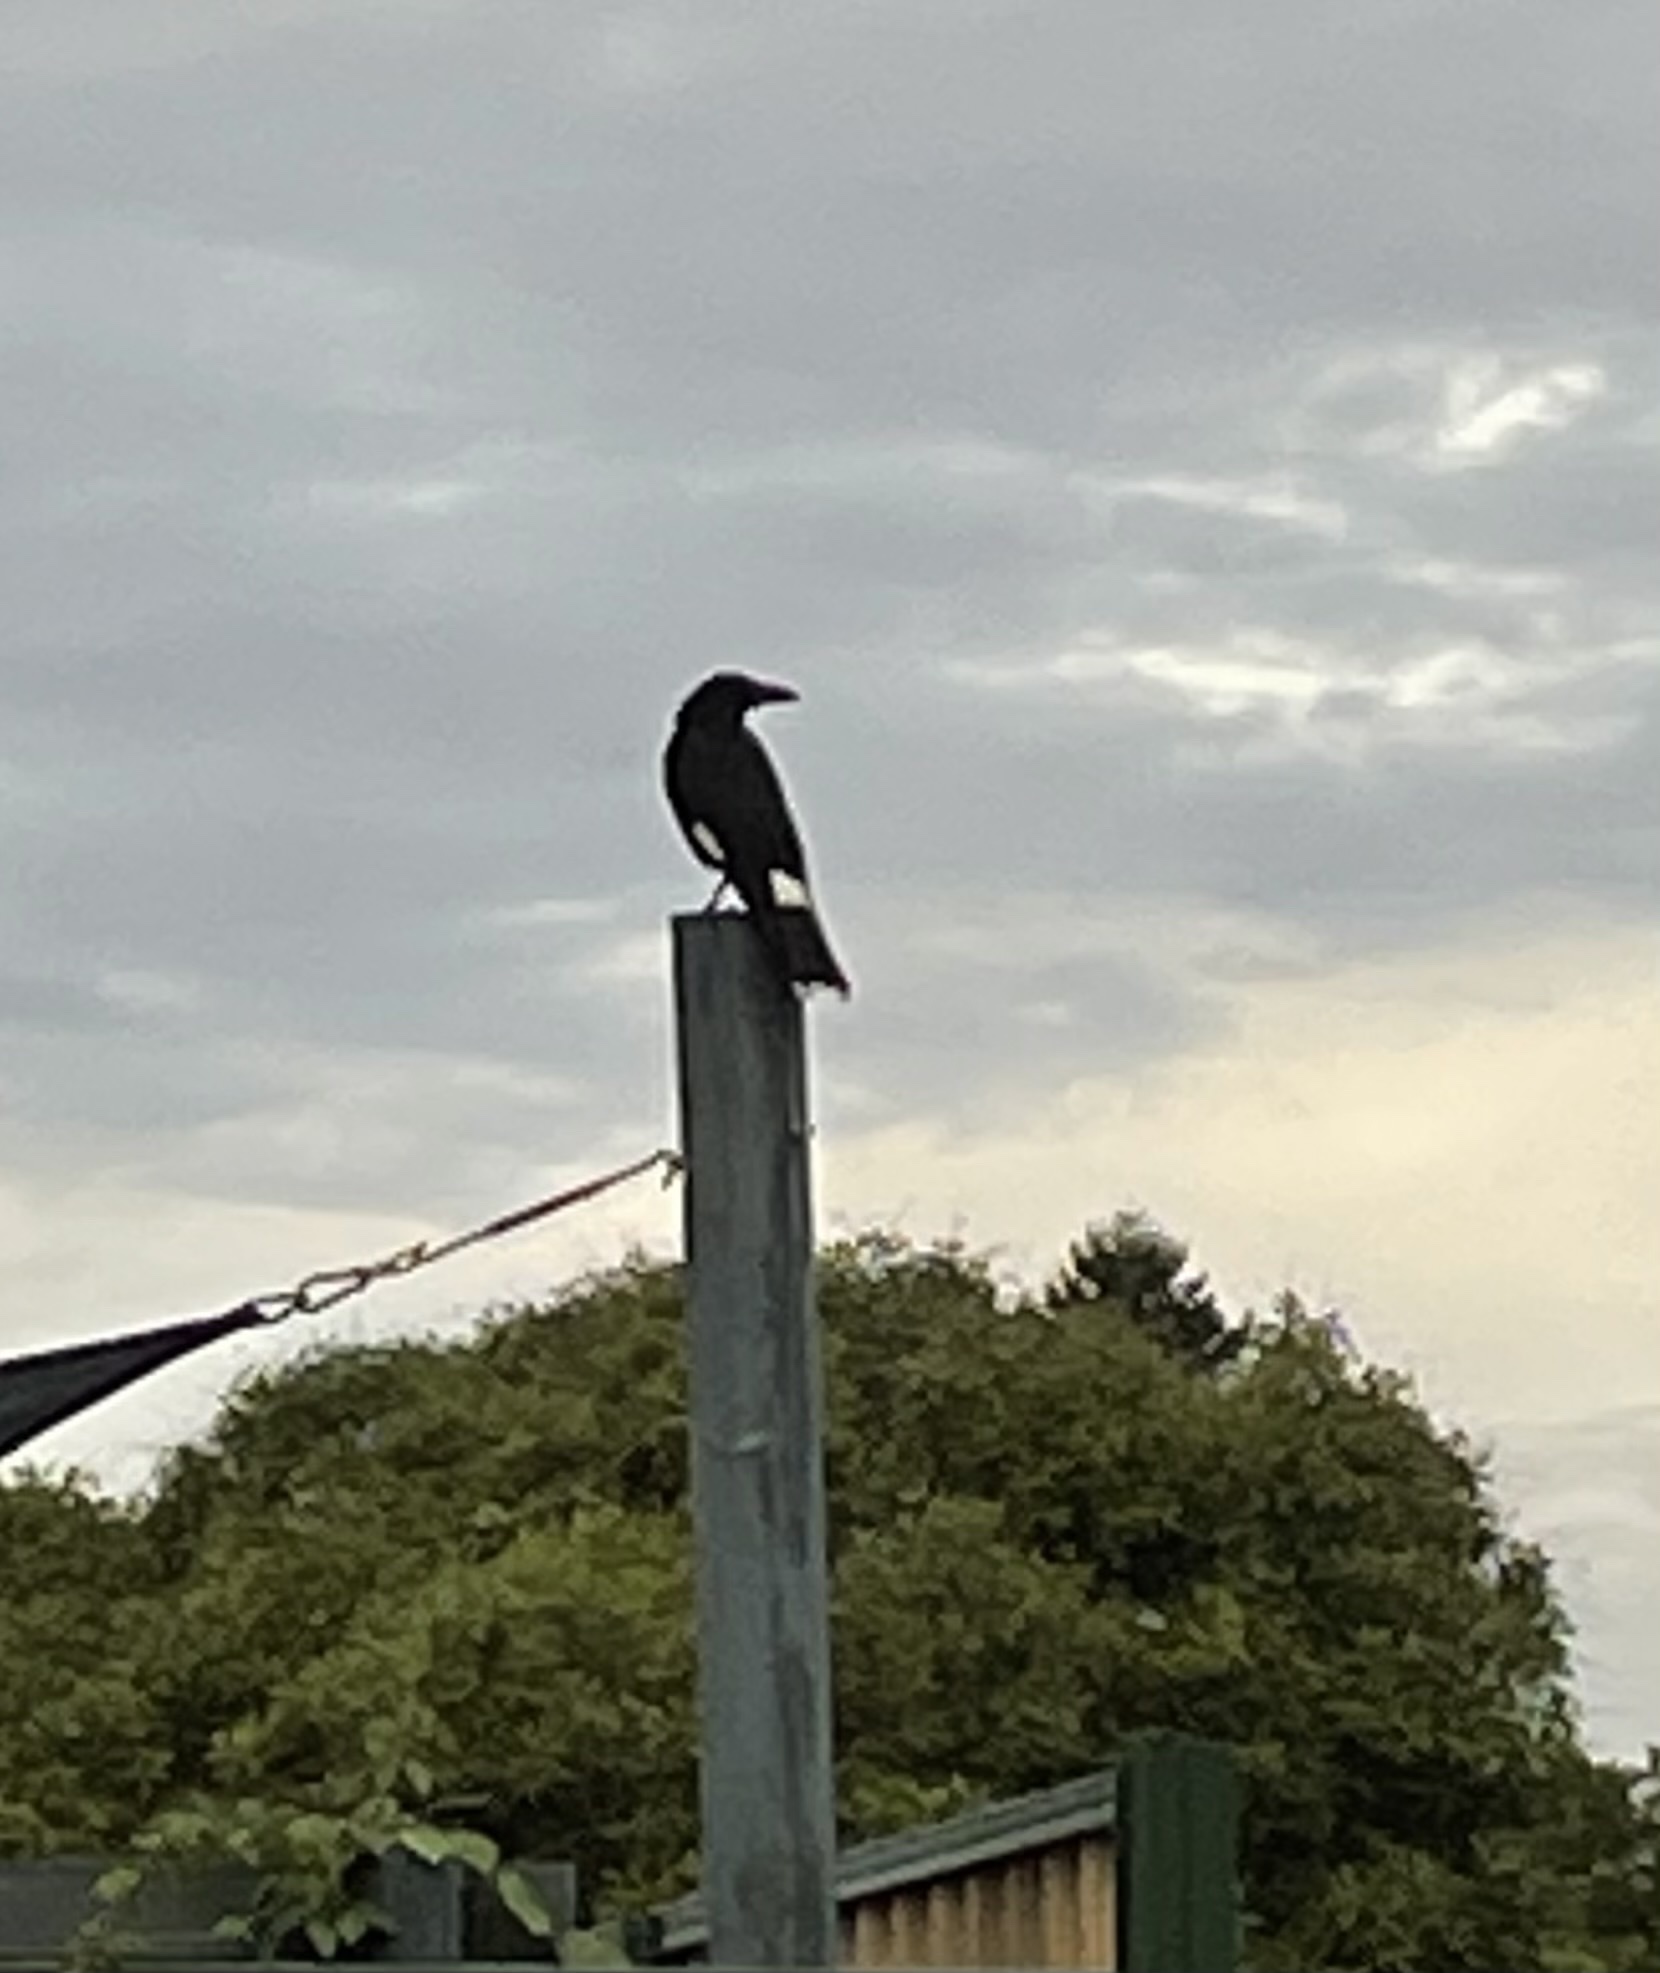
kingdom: Animalia
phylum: Chordata
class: Aves
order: Passeriformes
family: Cracticidae
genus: Strepera
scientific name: Strepera graculina
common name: Pied currawong
